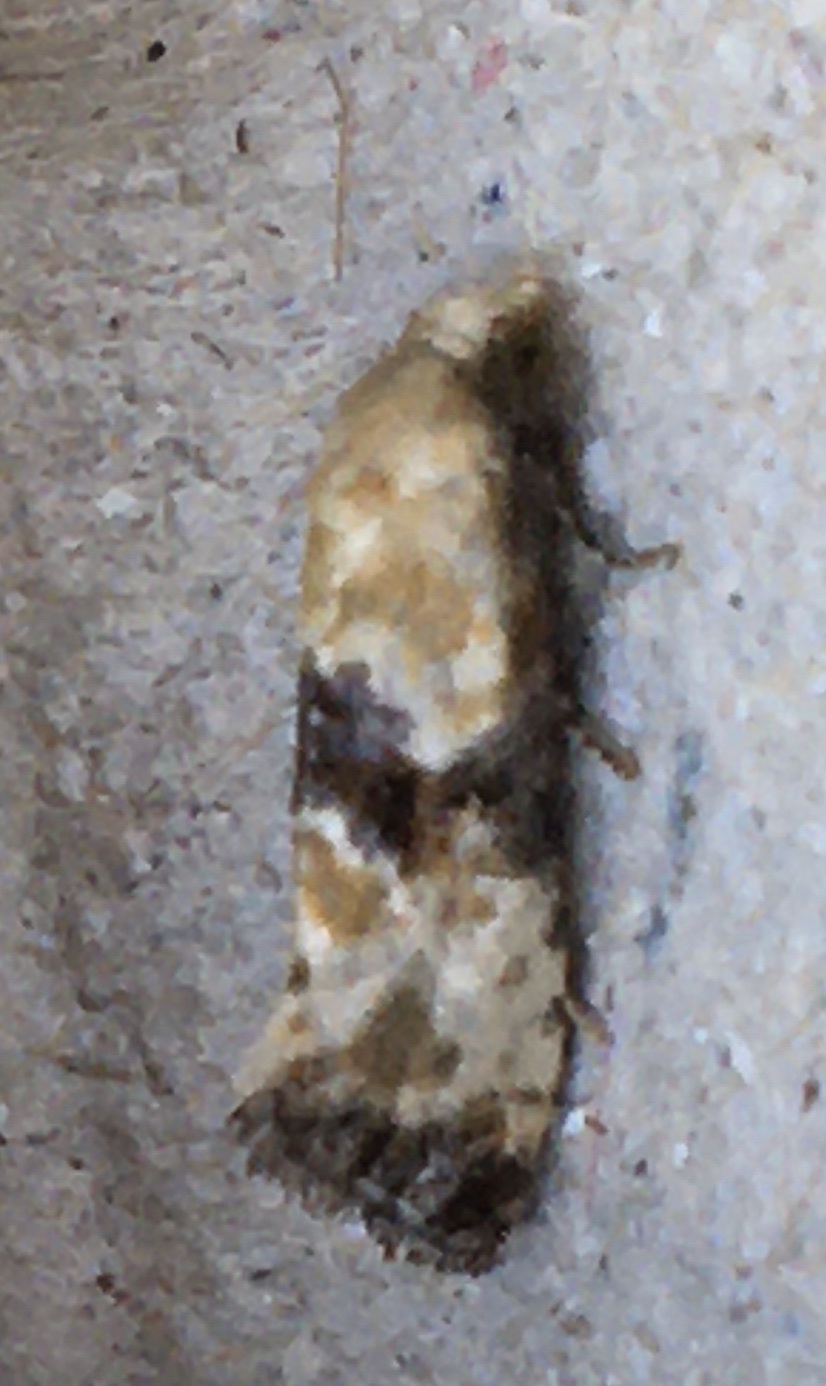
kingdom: Animalia
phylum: Arthropoda
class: Insecta
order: Lepidoptera
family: Tortricidae
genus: Eupoecilia
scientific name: Eupoecilia angustana
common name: Marbled conch
